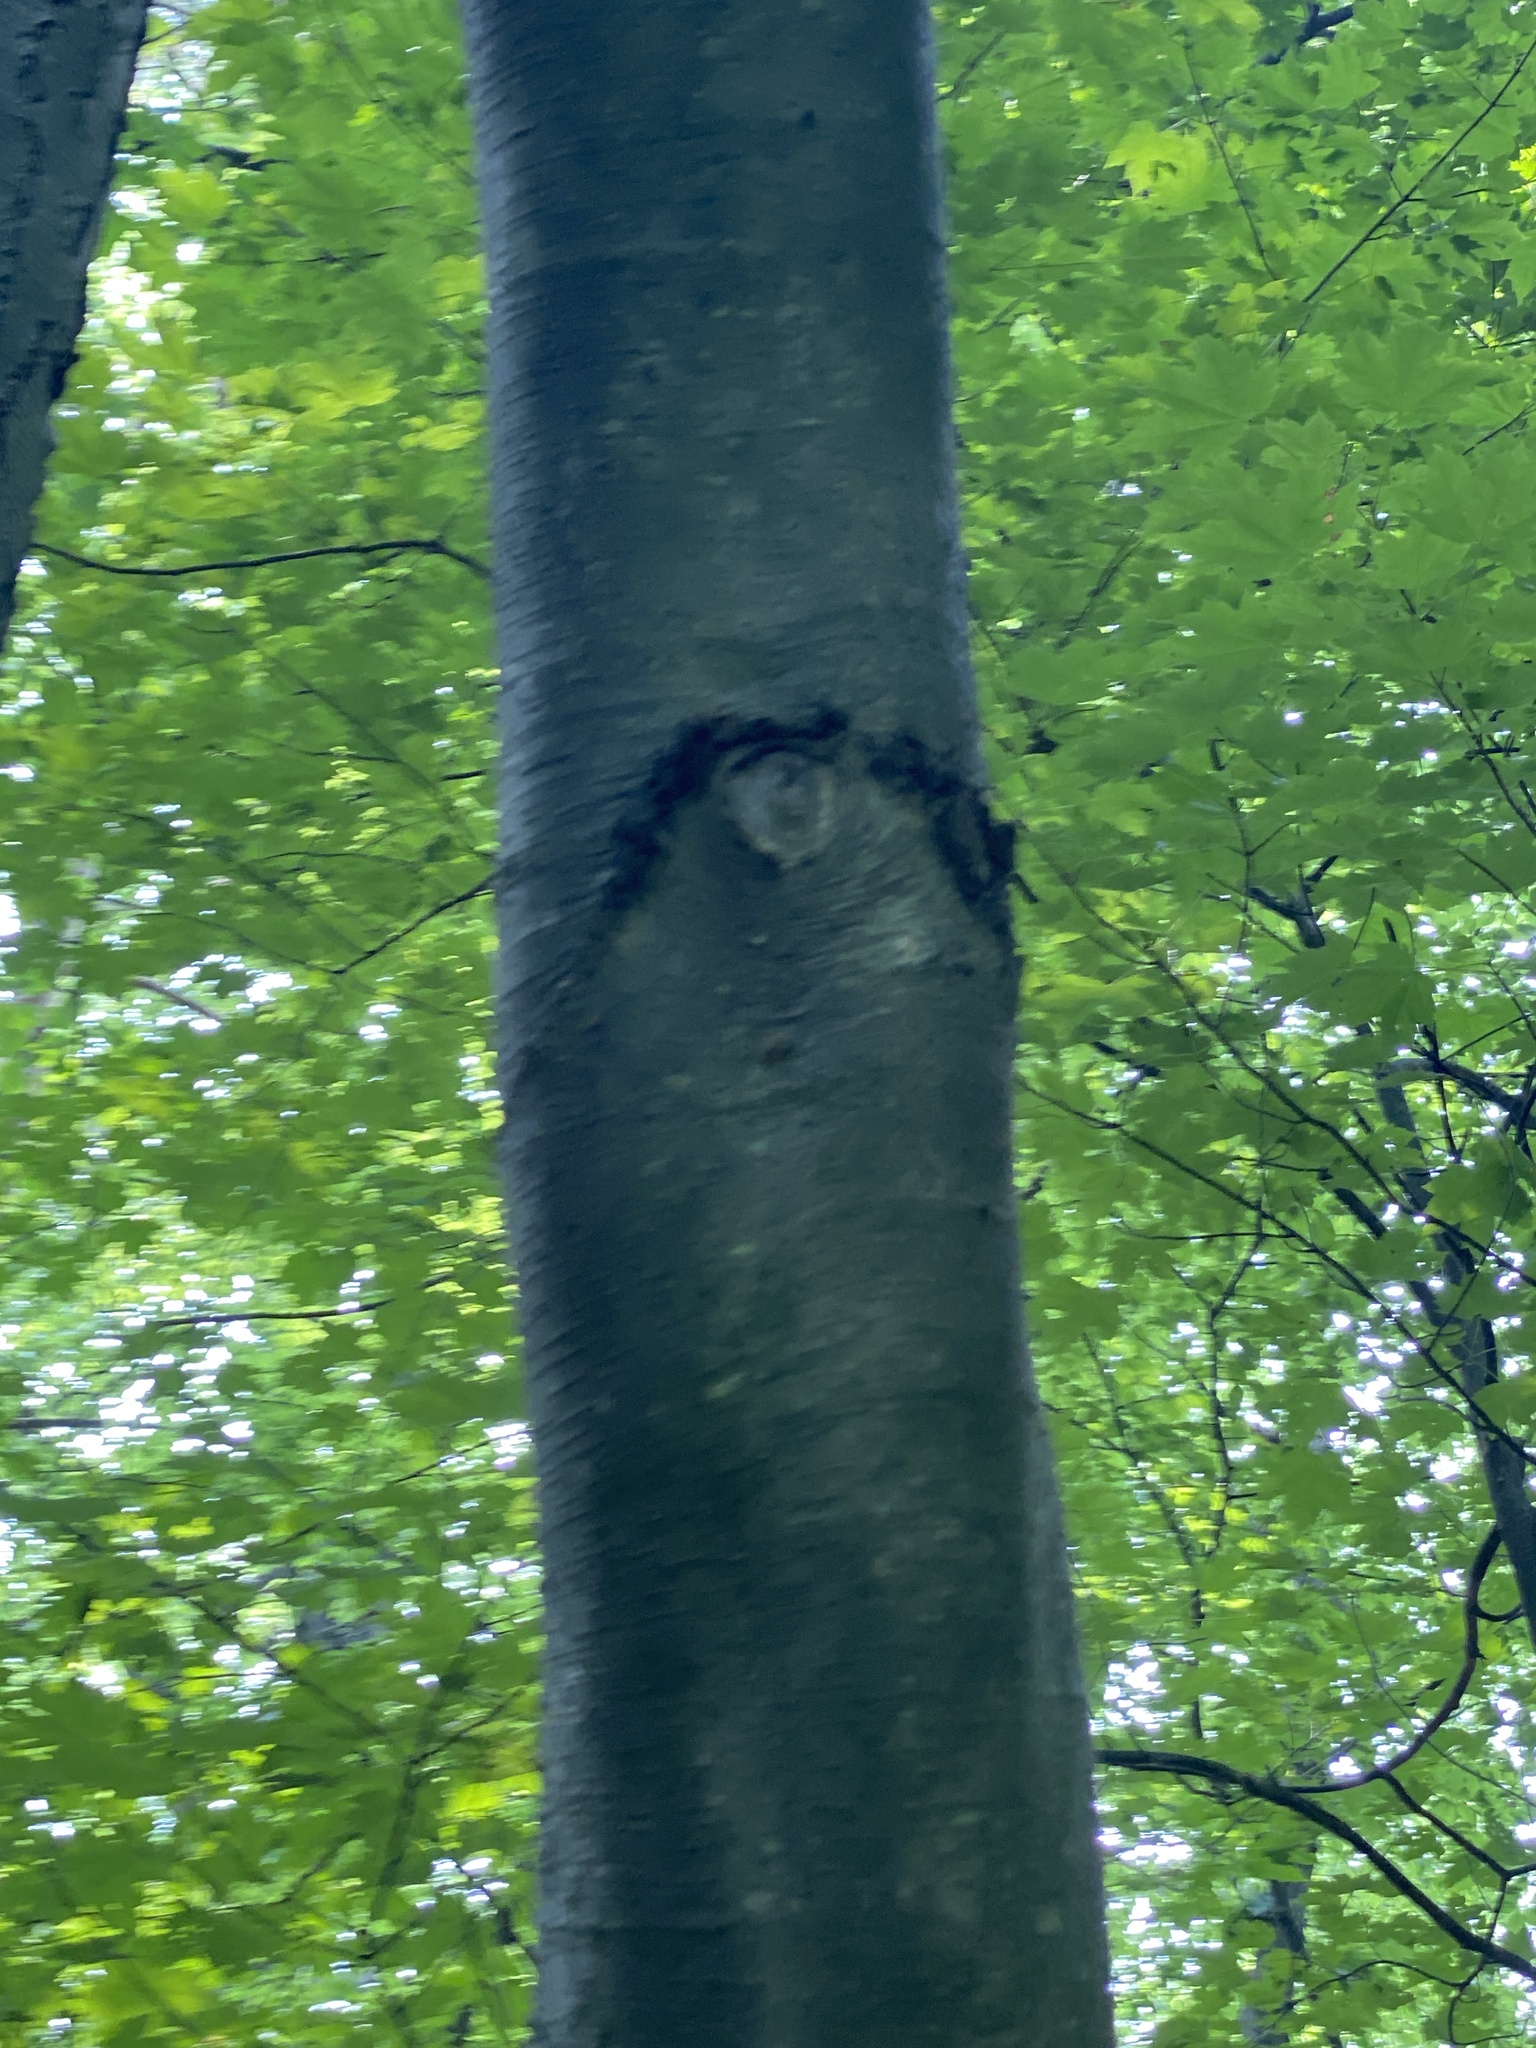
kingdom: Plantae
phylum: Tracheophyta
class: Magnoliopsida
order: Fagales
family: Betulaceae
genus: Betula
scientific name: Betula lenta
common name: Black birch
